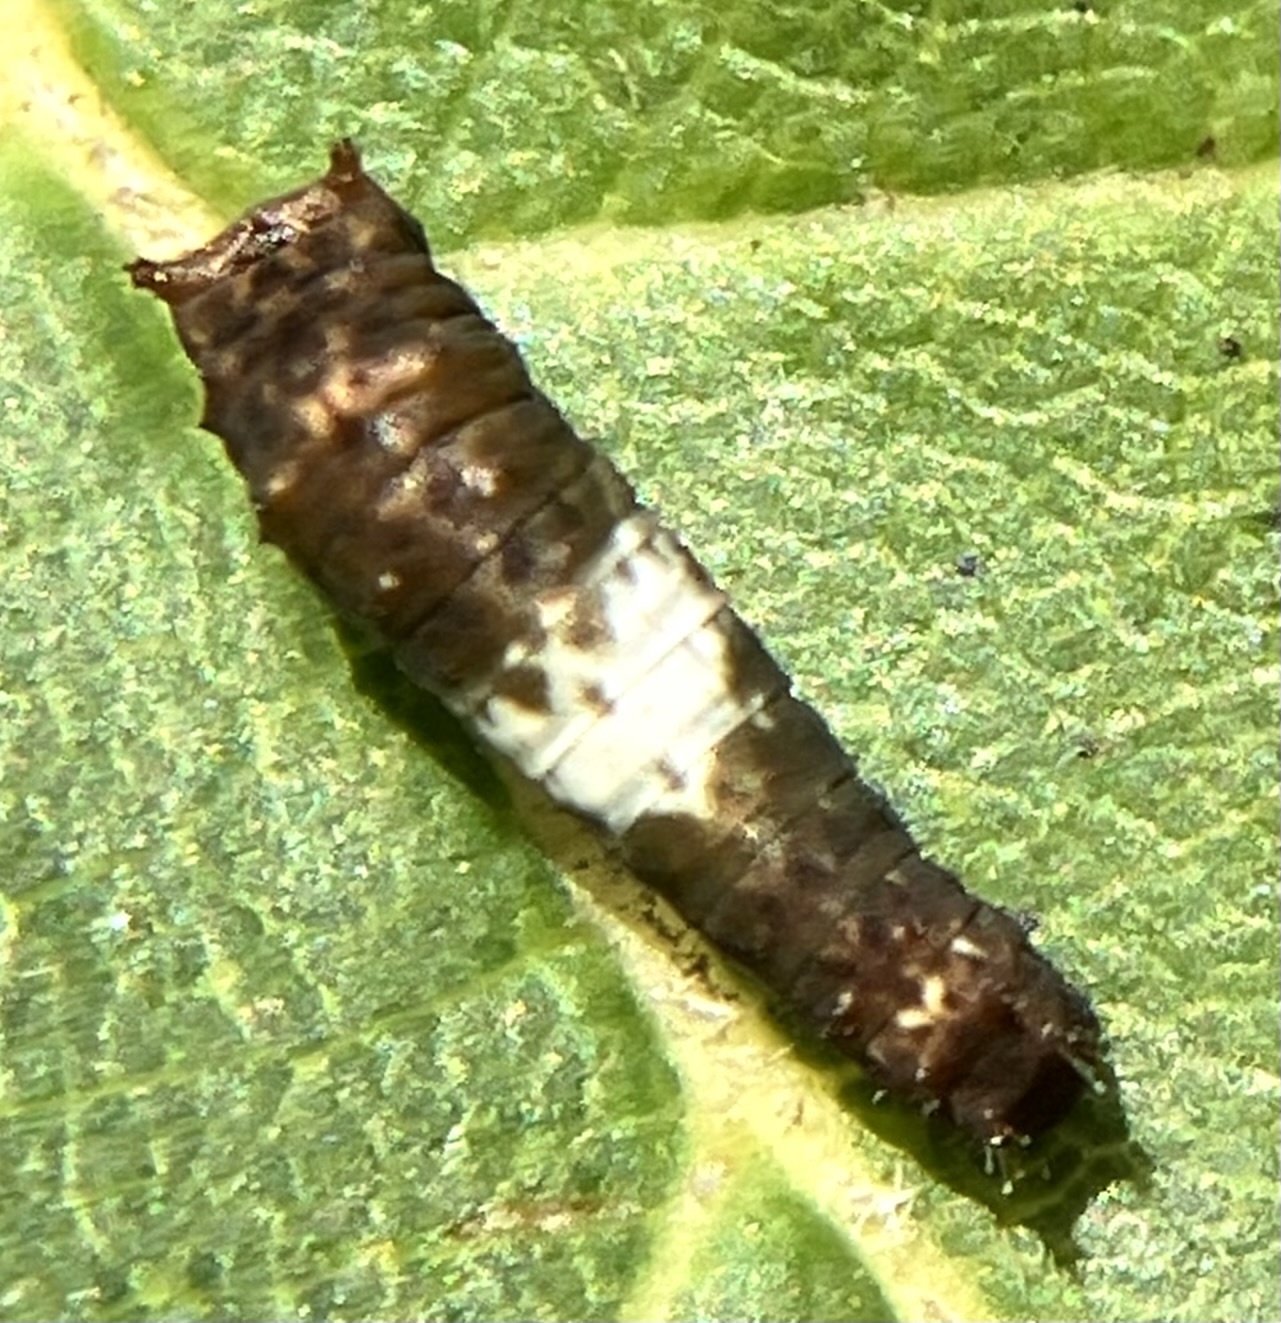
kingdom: Animalia
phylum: Arthropoda
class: Insecta
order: Lepidoptera
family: Papilionidae
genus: Papilio
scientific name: Papilio glaucus
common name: Tiger swallowtail
